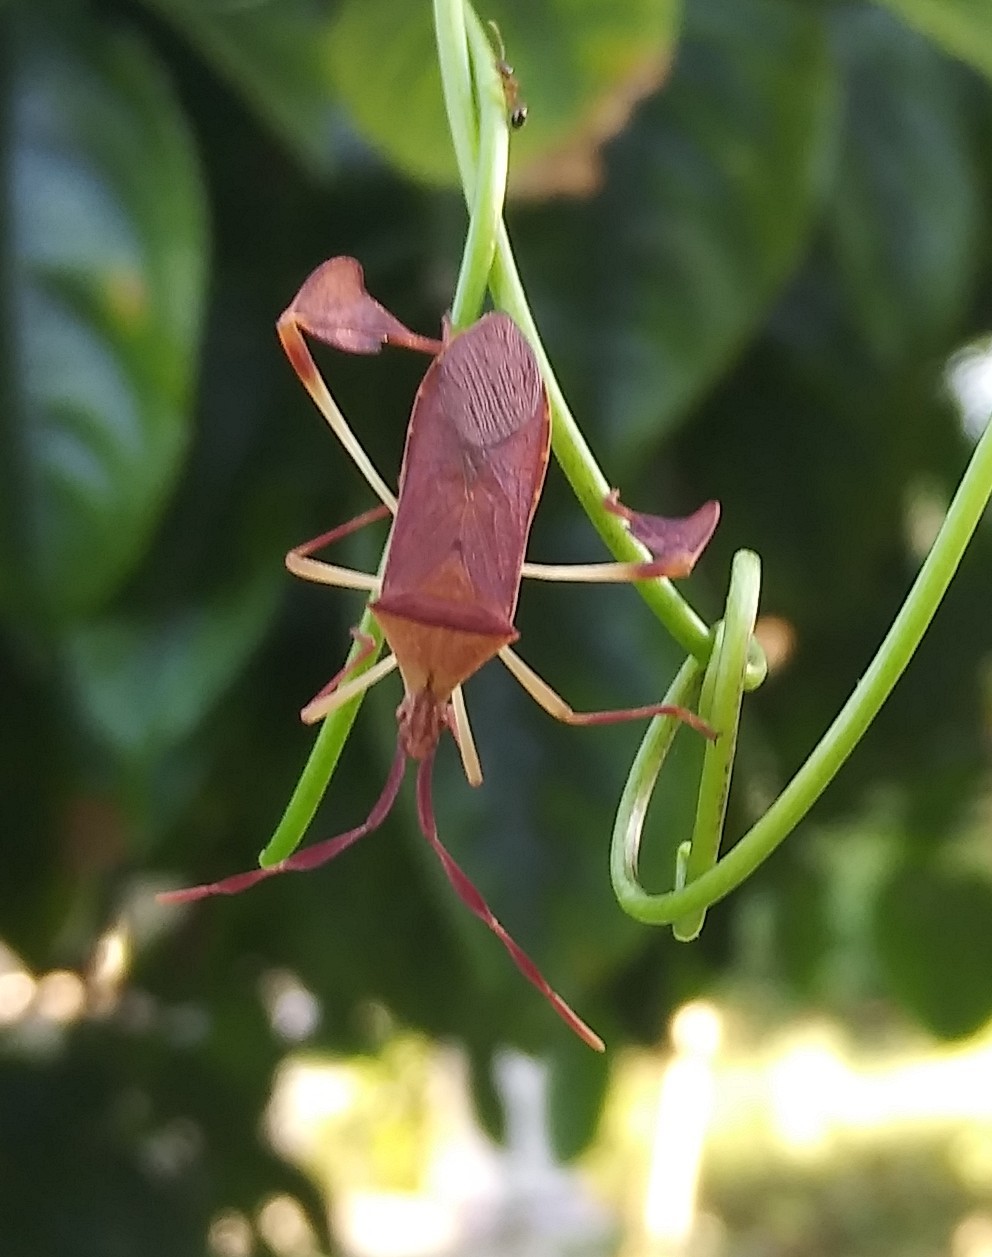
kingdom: Animalia
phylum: Arthropoda
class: Insecta
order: Hemiptera
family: Coreidae
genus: Chondrocera
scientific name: Chondrocera laticornis
